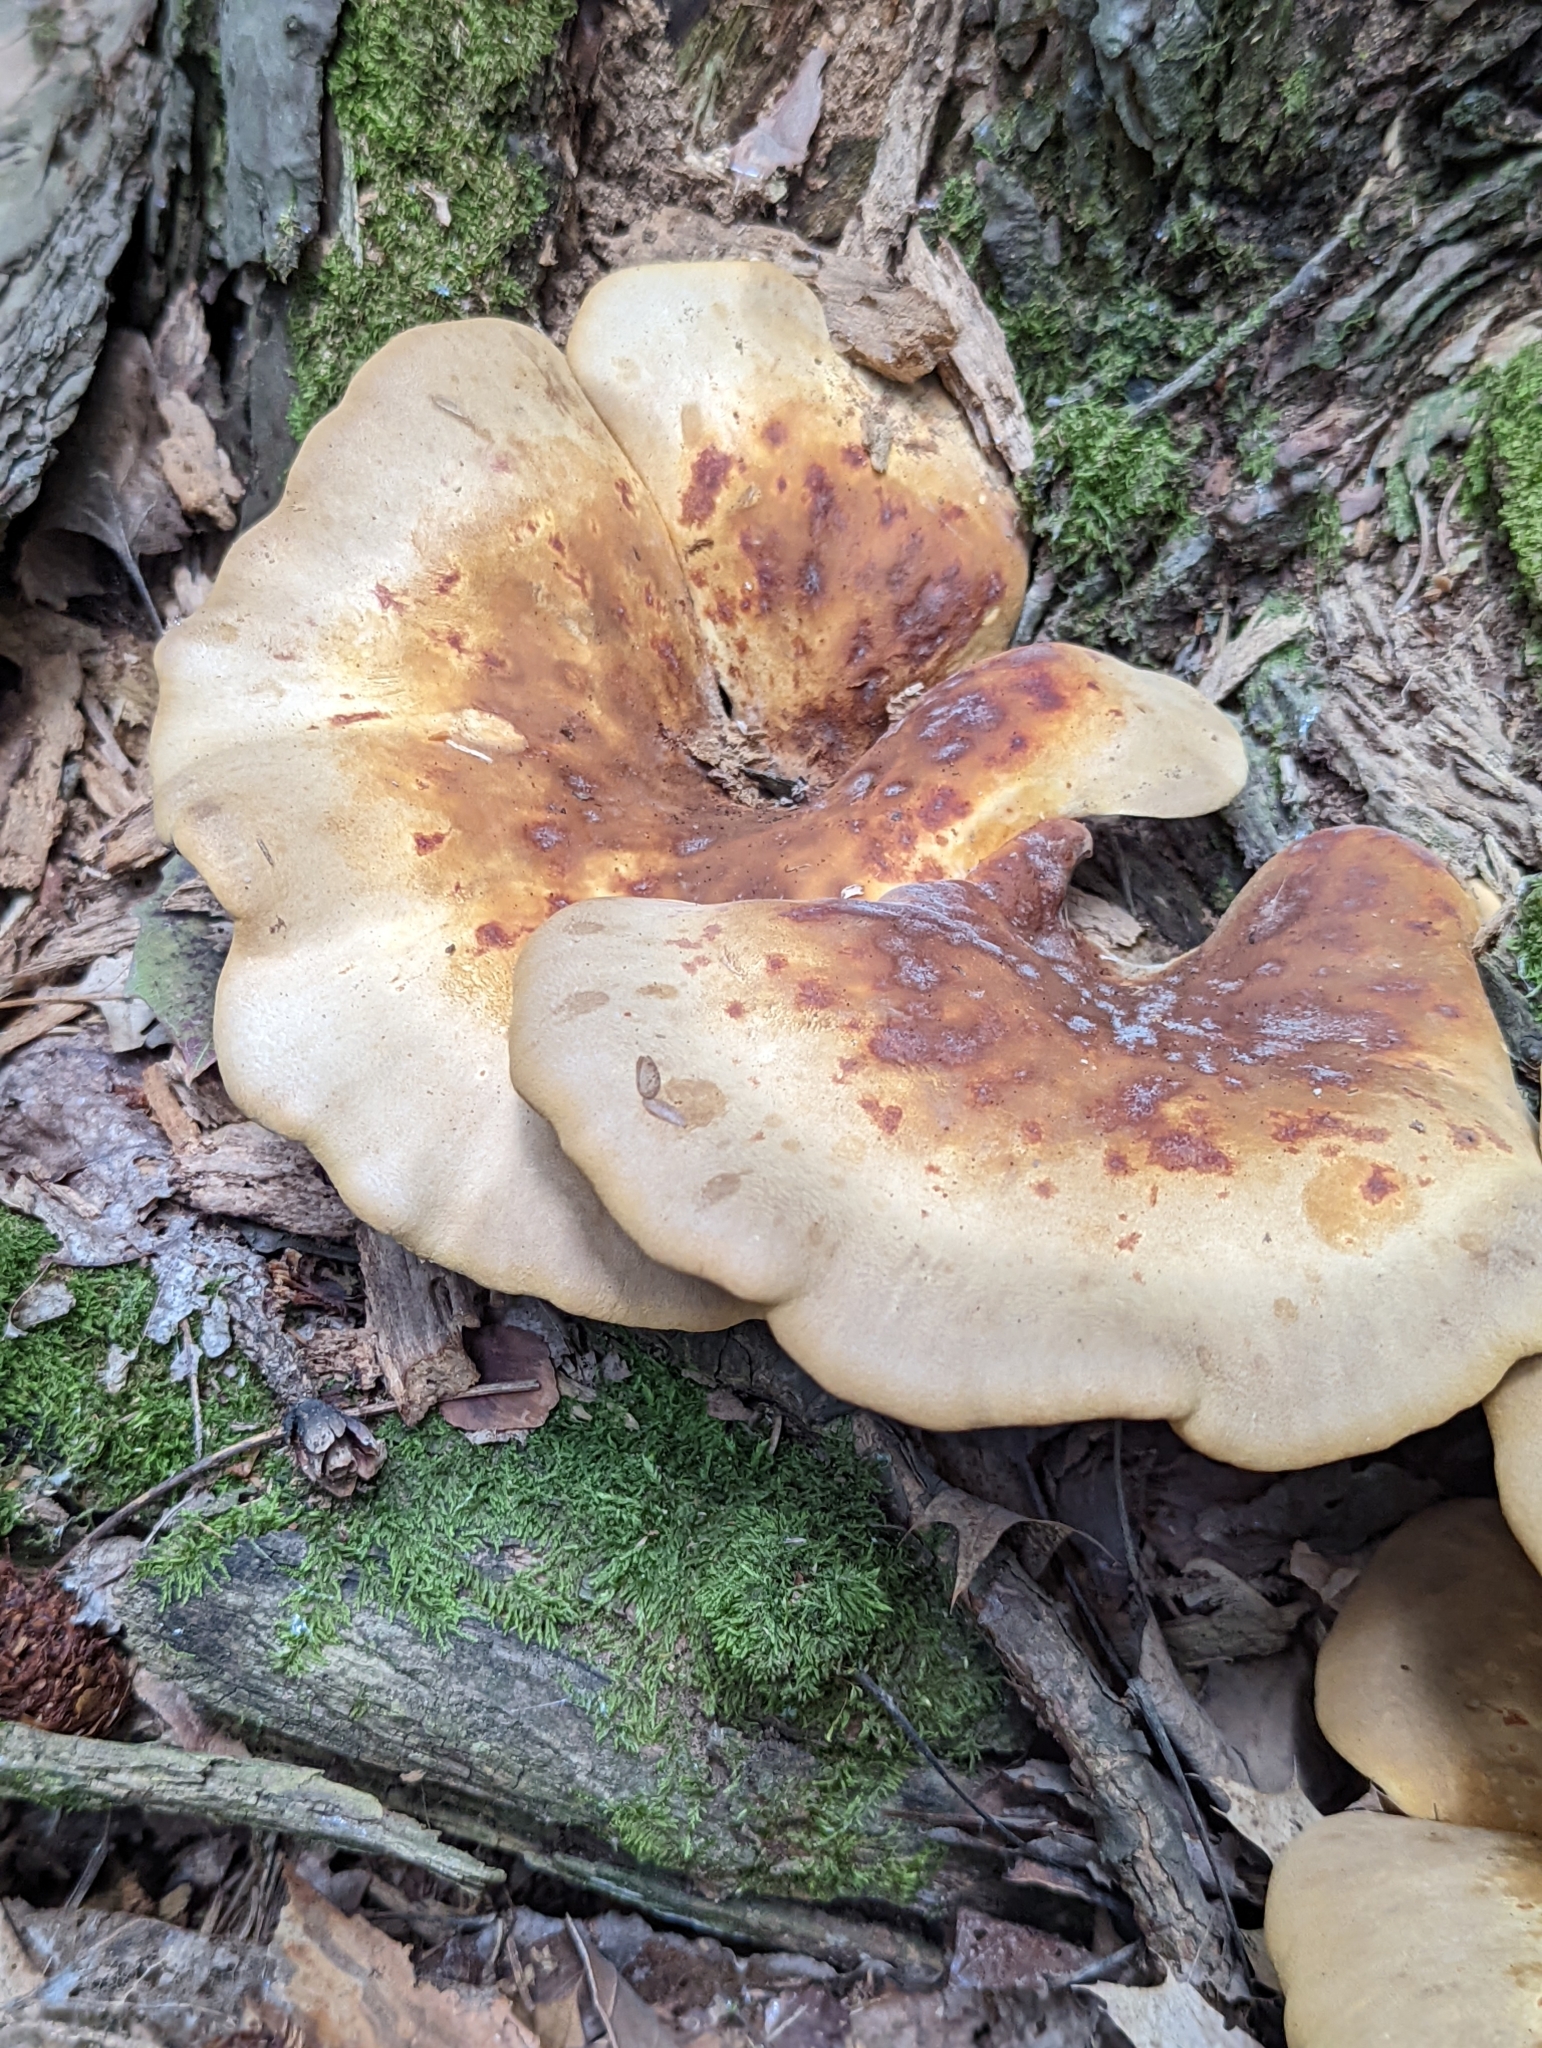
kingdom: Fungi
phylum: Basidiomycota
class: Agaricomycetes
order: Boletales
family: Tapinellaceae
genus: Tapinella
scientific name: Tapinella atrotomentosa
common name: Velvet rollrim
